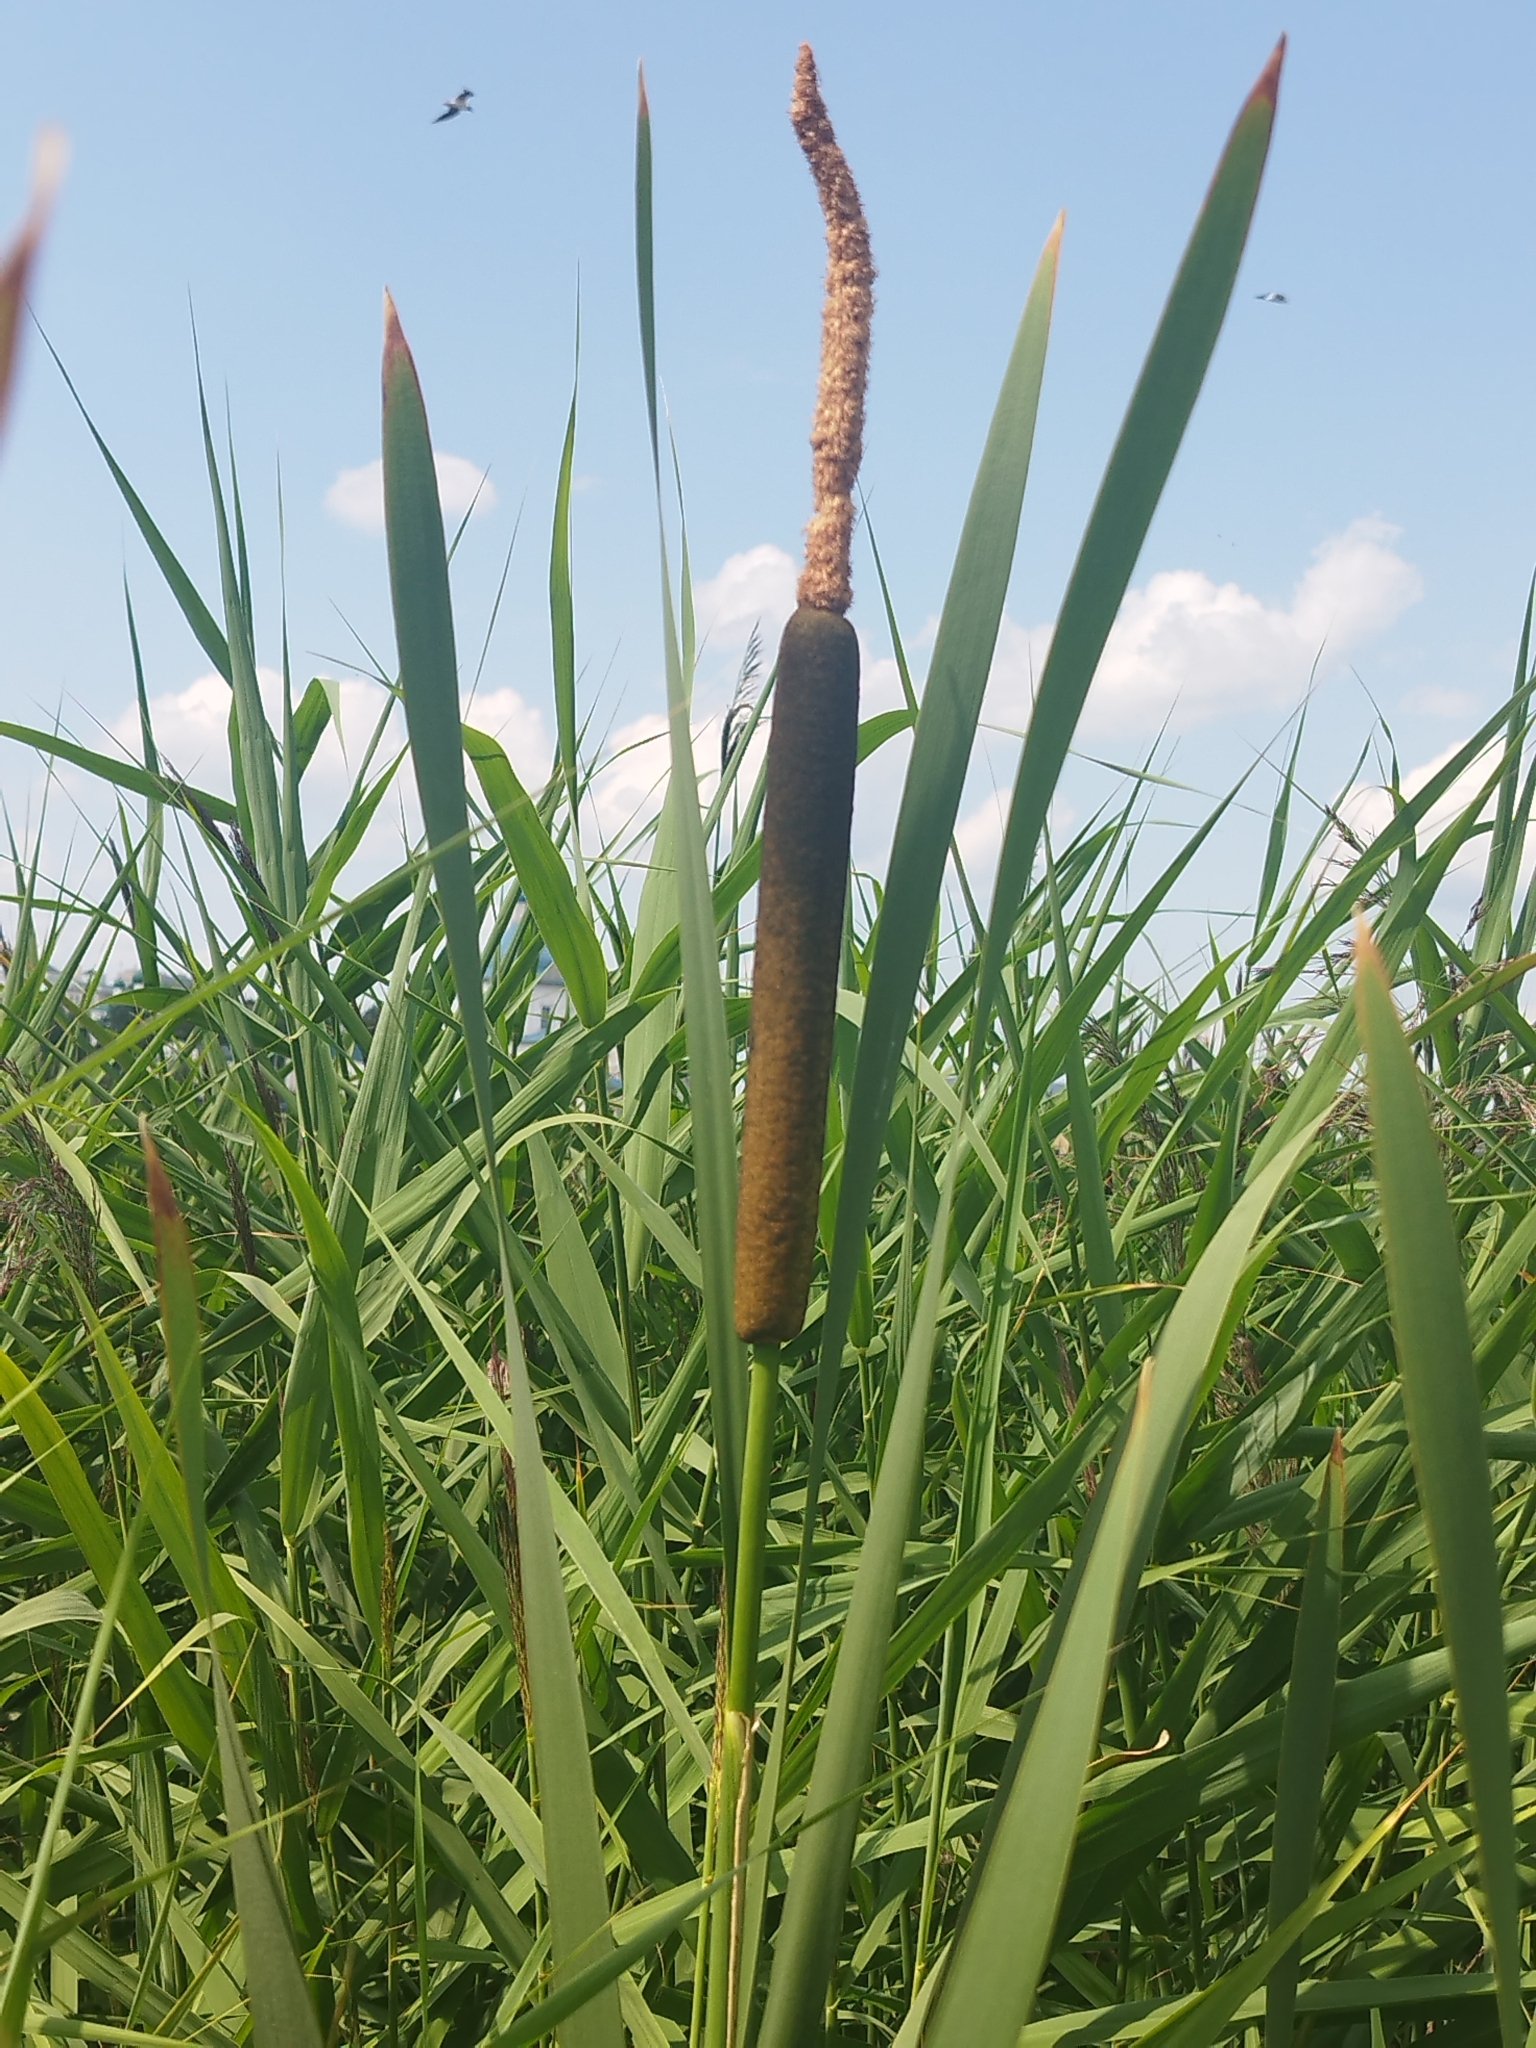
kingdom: Plantae
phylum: Tracheophyta
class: Liliopsida
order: Poales
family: Typhaceae
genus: Typha
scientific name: Typha latifolia
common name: Broadleaf cattail
